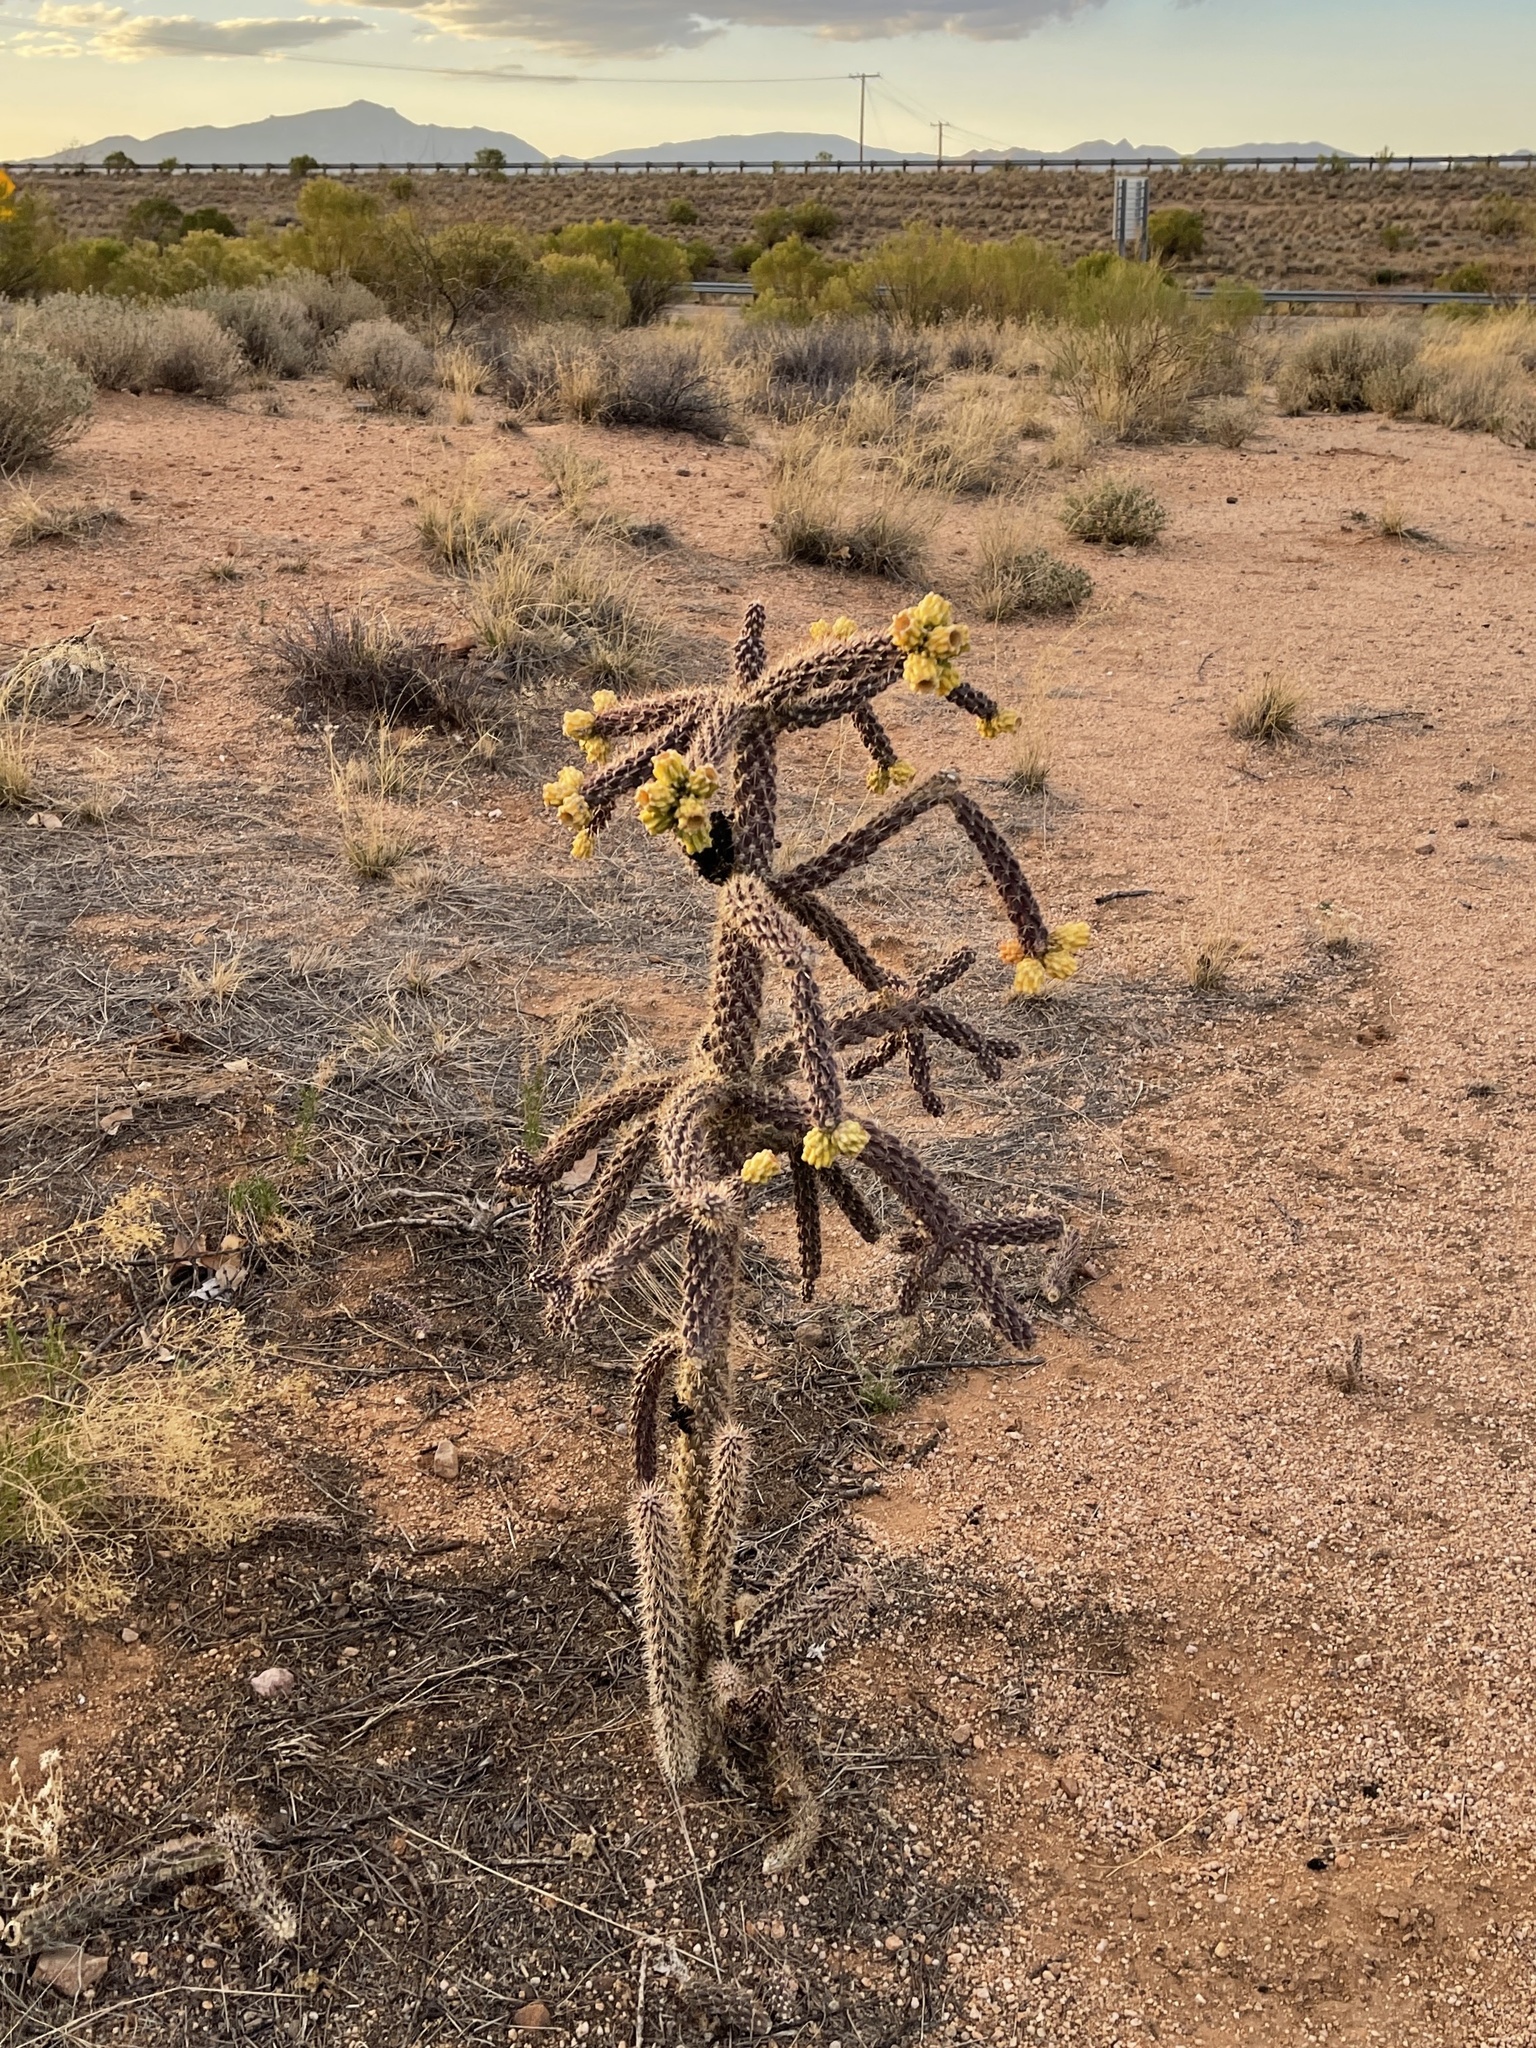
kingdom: Plantae
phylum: Tracheophyta
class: Magnoliopsida
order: Caryophyllales
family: Cactaceae
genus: Cylindropuntia
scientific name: Cylindropuntia imbricata
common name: Candelabrum cactus
